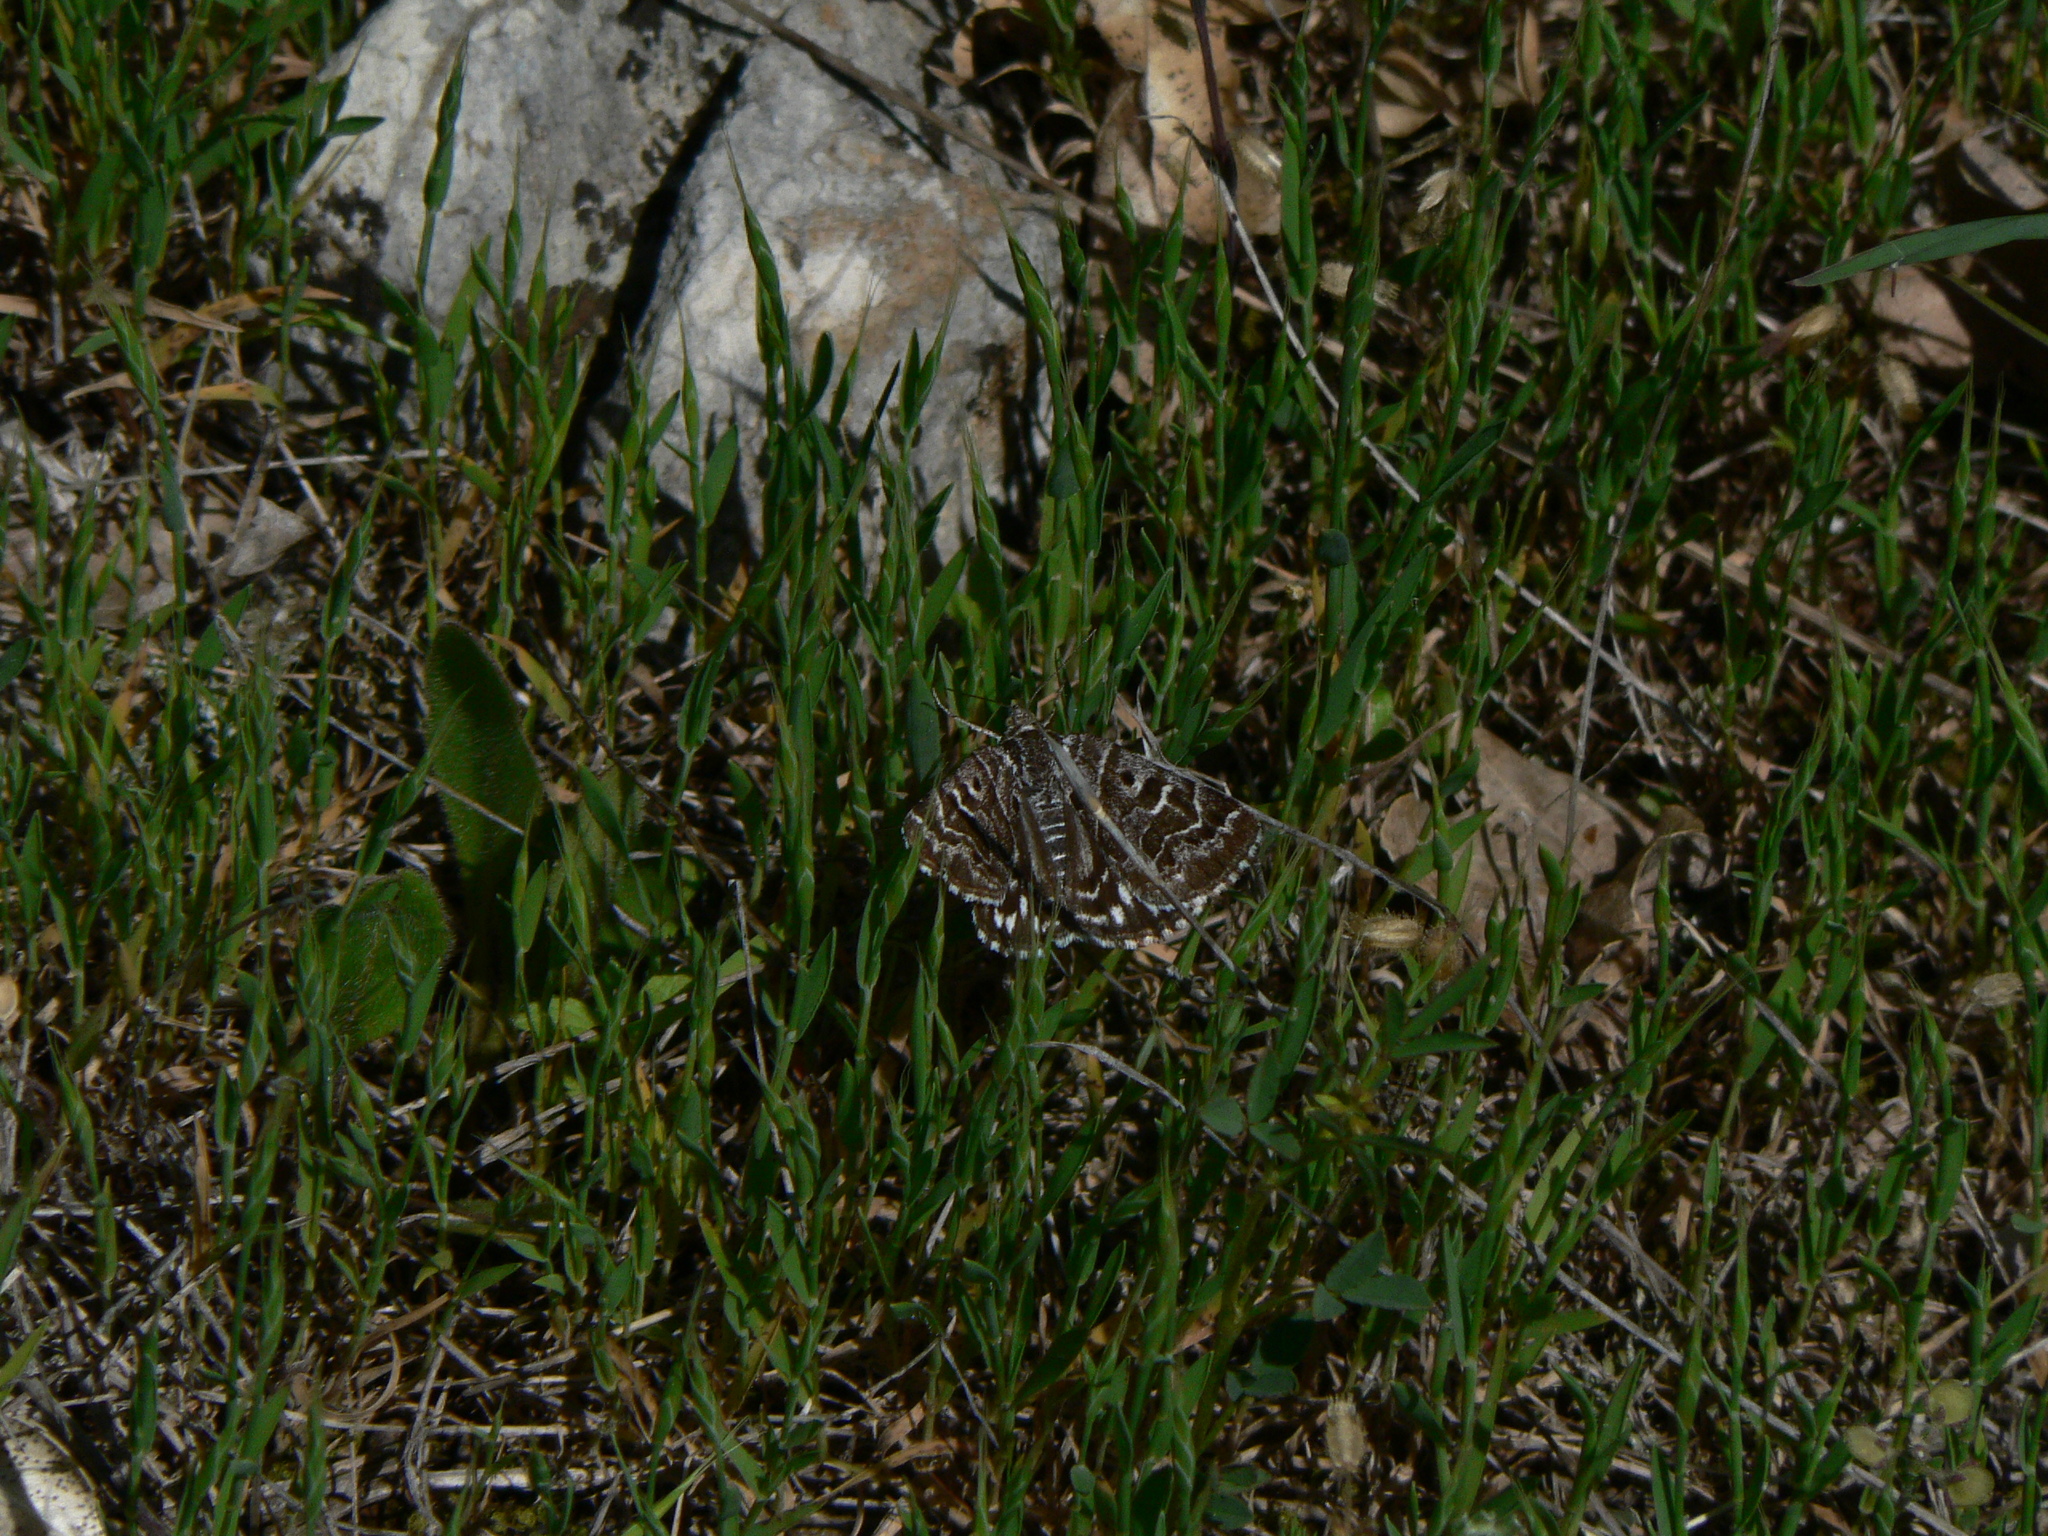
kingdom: Animalia
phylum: Arthropoda
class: Insecta
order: Lepidoptera
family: Erebidae
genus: Callistege
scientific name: Callistege mi
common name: Mother shipton
